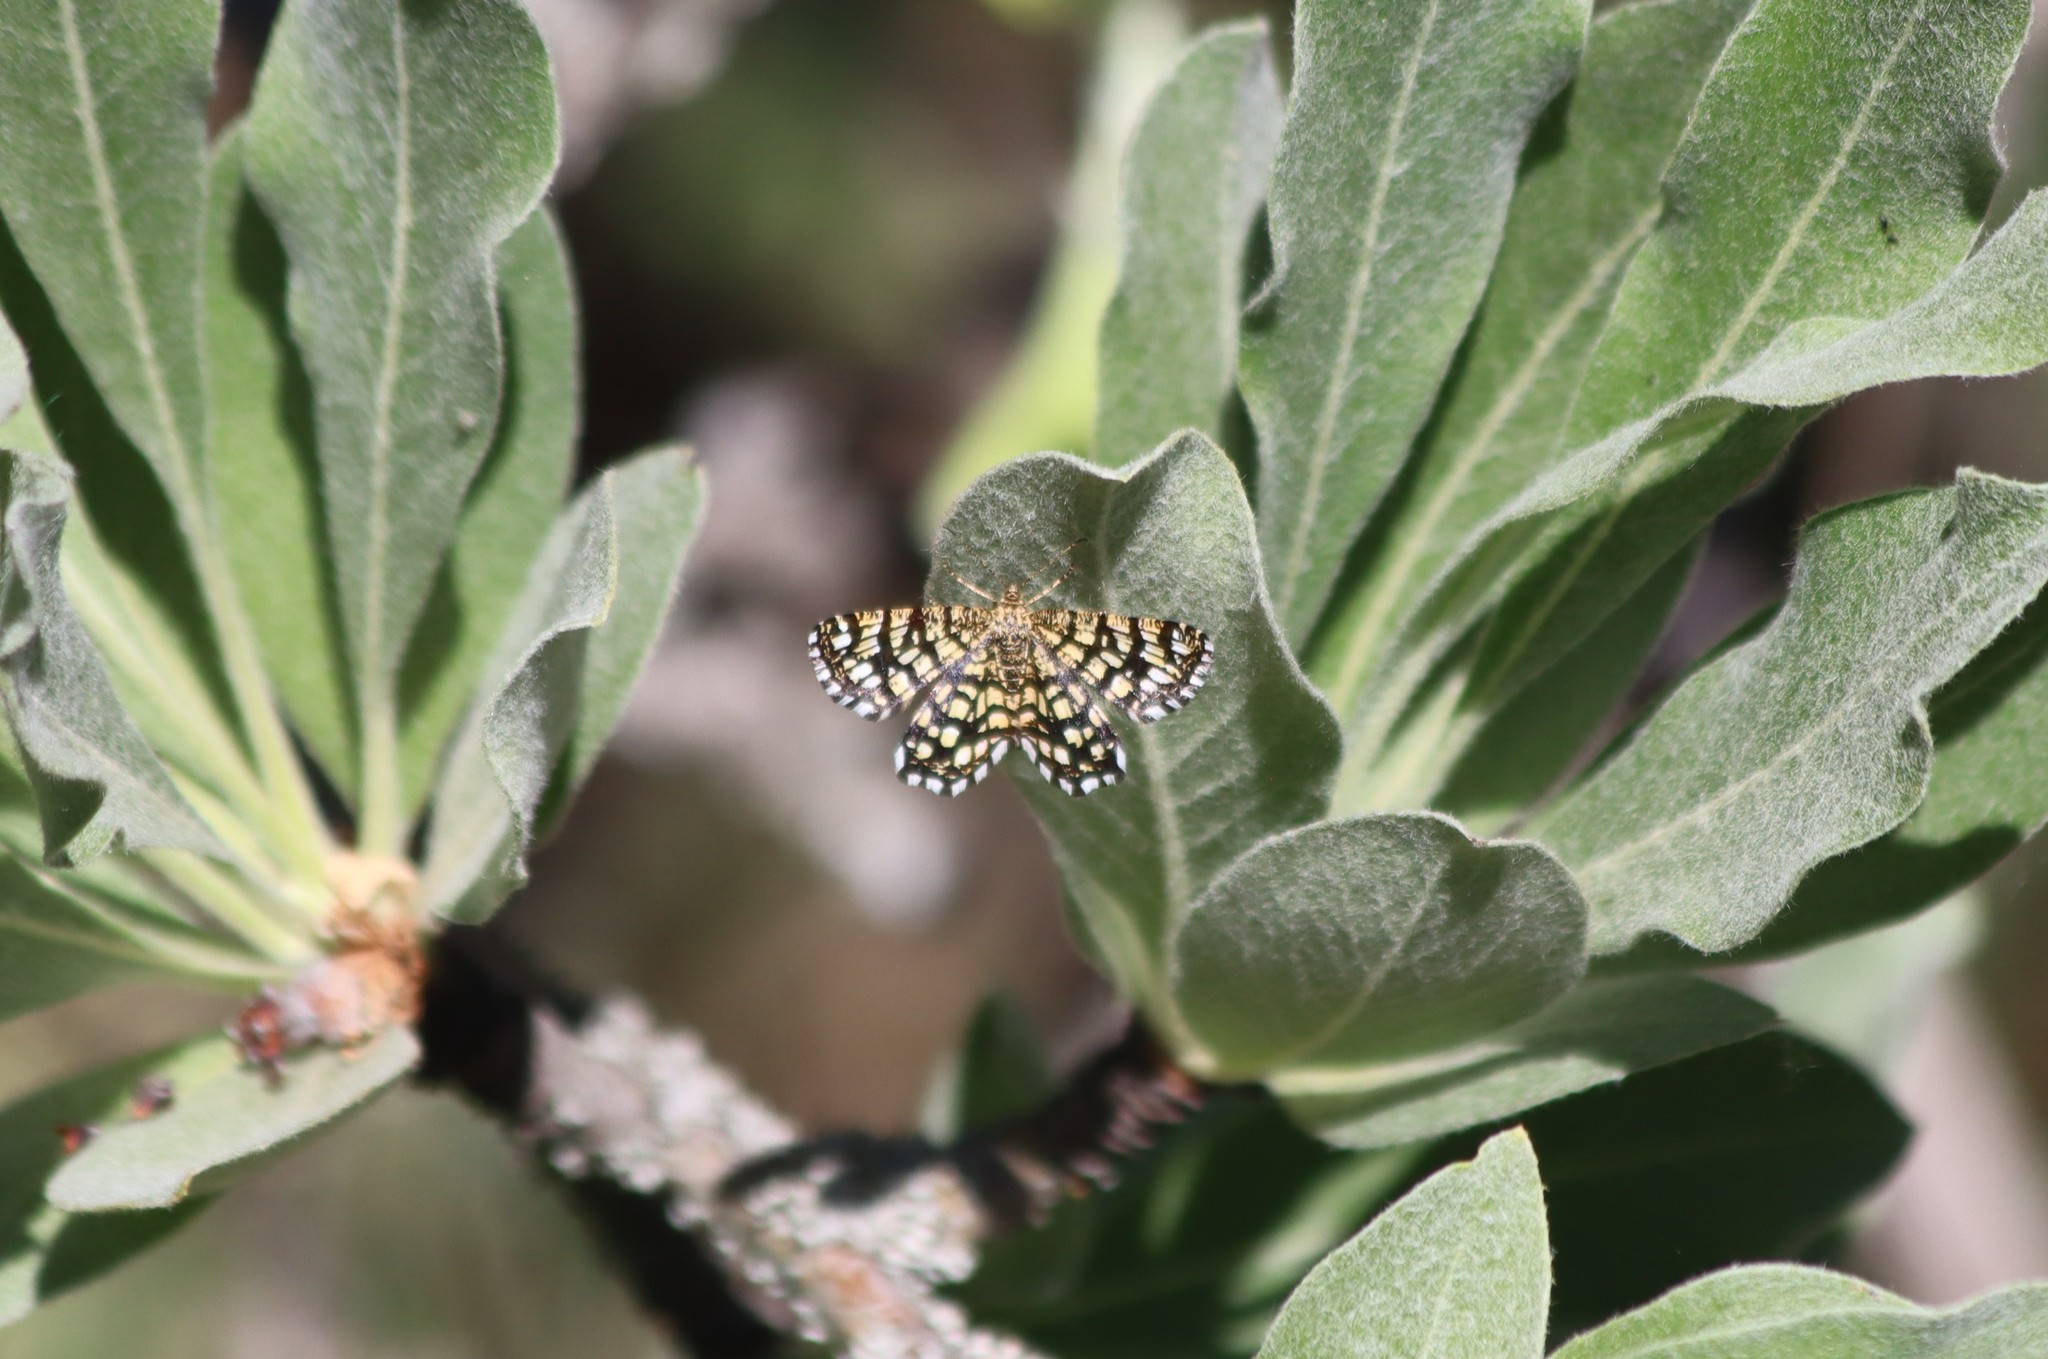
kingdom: Animalia
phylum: Arthropoda
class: Insecta
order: Lepidoptera
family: Geometridae
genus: Chiasmia
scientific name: Chiasmia clathrata
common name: Latticed heath
